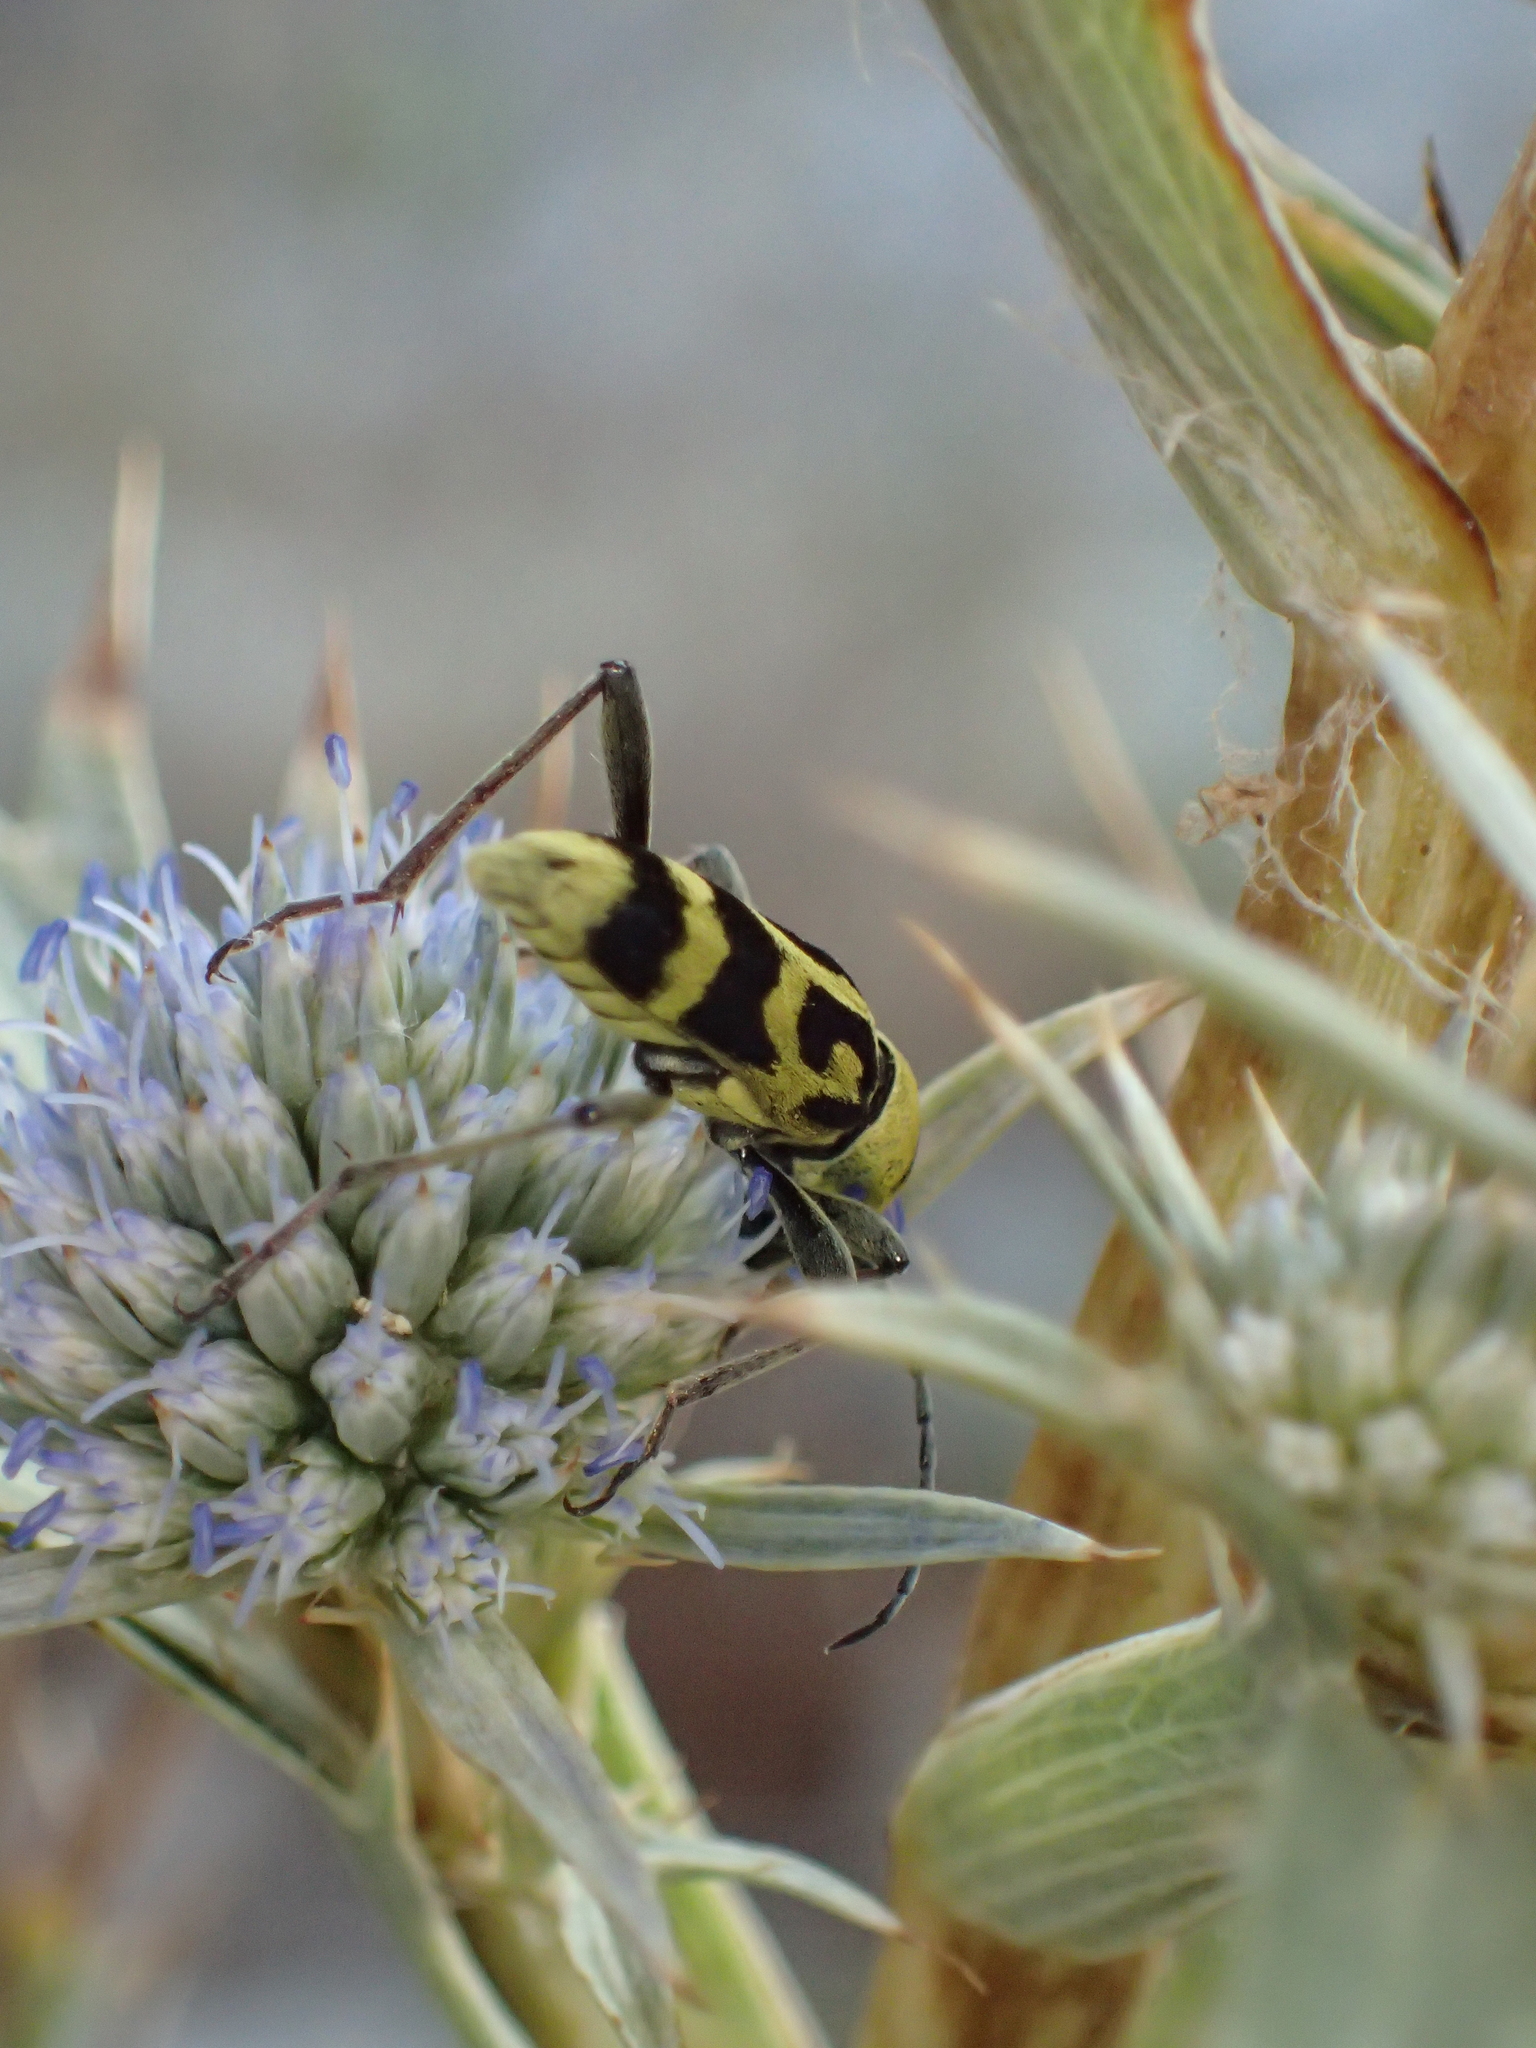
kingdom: Animalia
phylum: Arthropoda
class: Insecta
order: Coleoptera
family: Cerambycidae
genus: Chlorophorus
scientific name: Chlorophorus varius
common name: Grape wood borer
